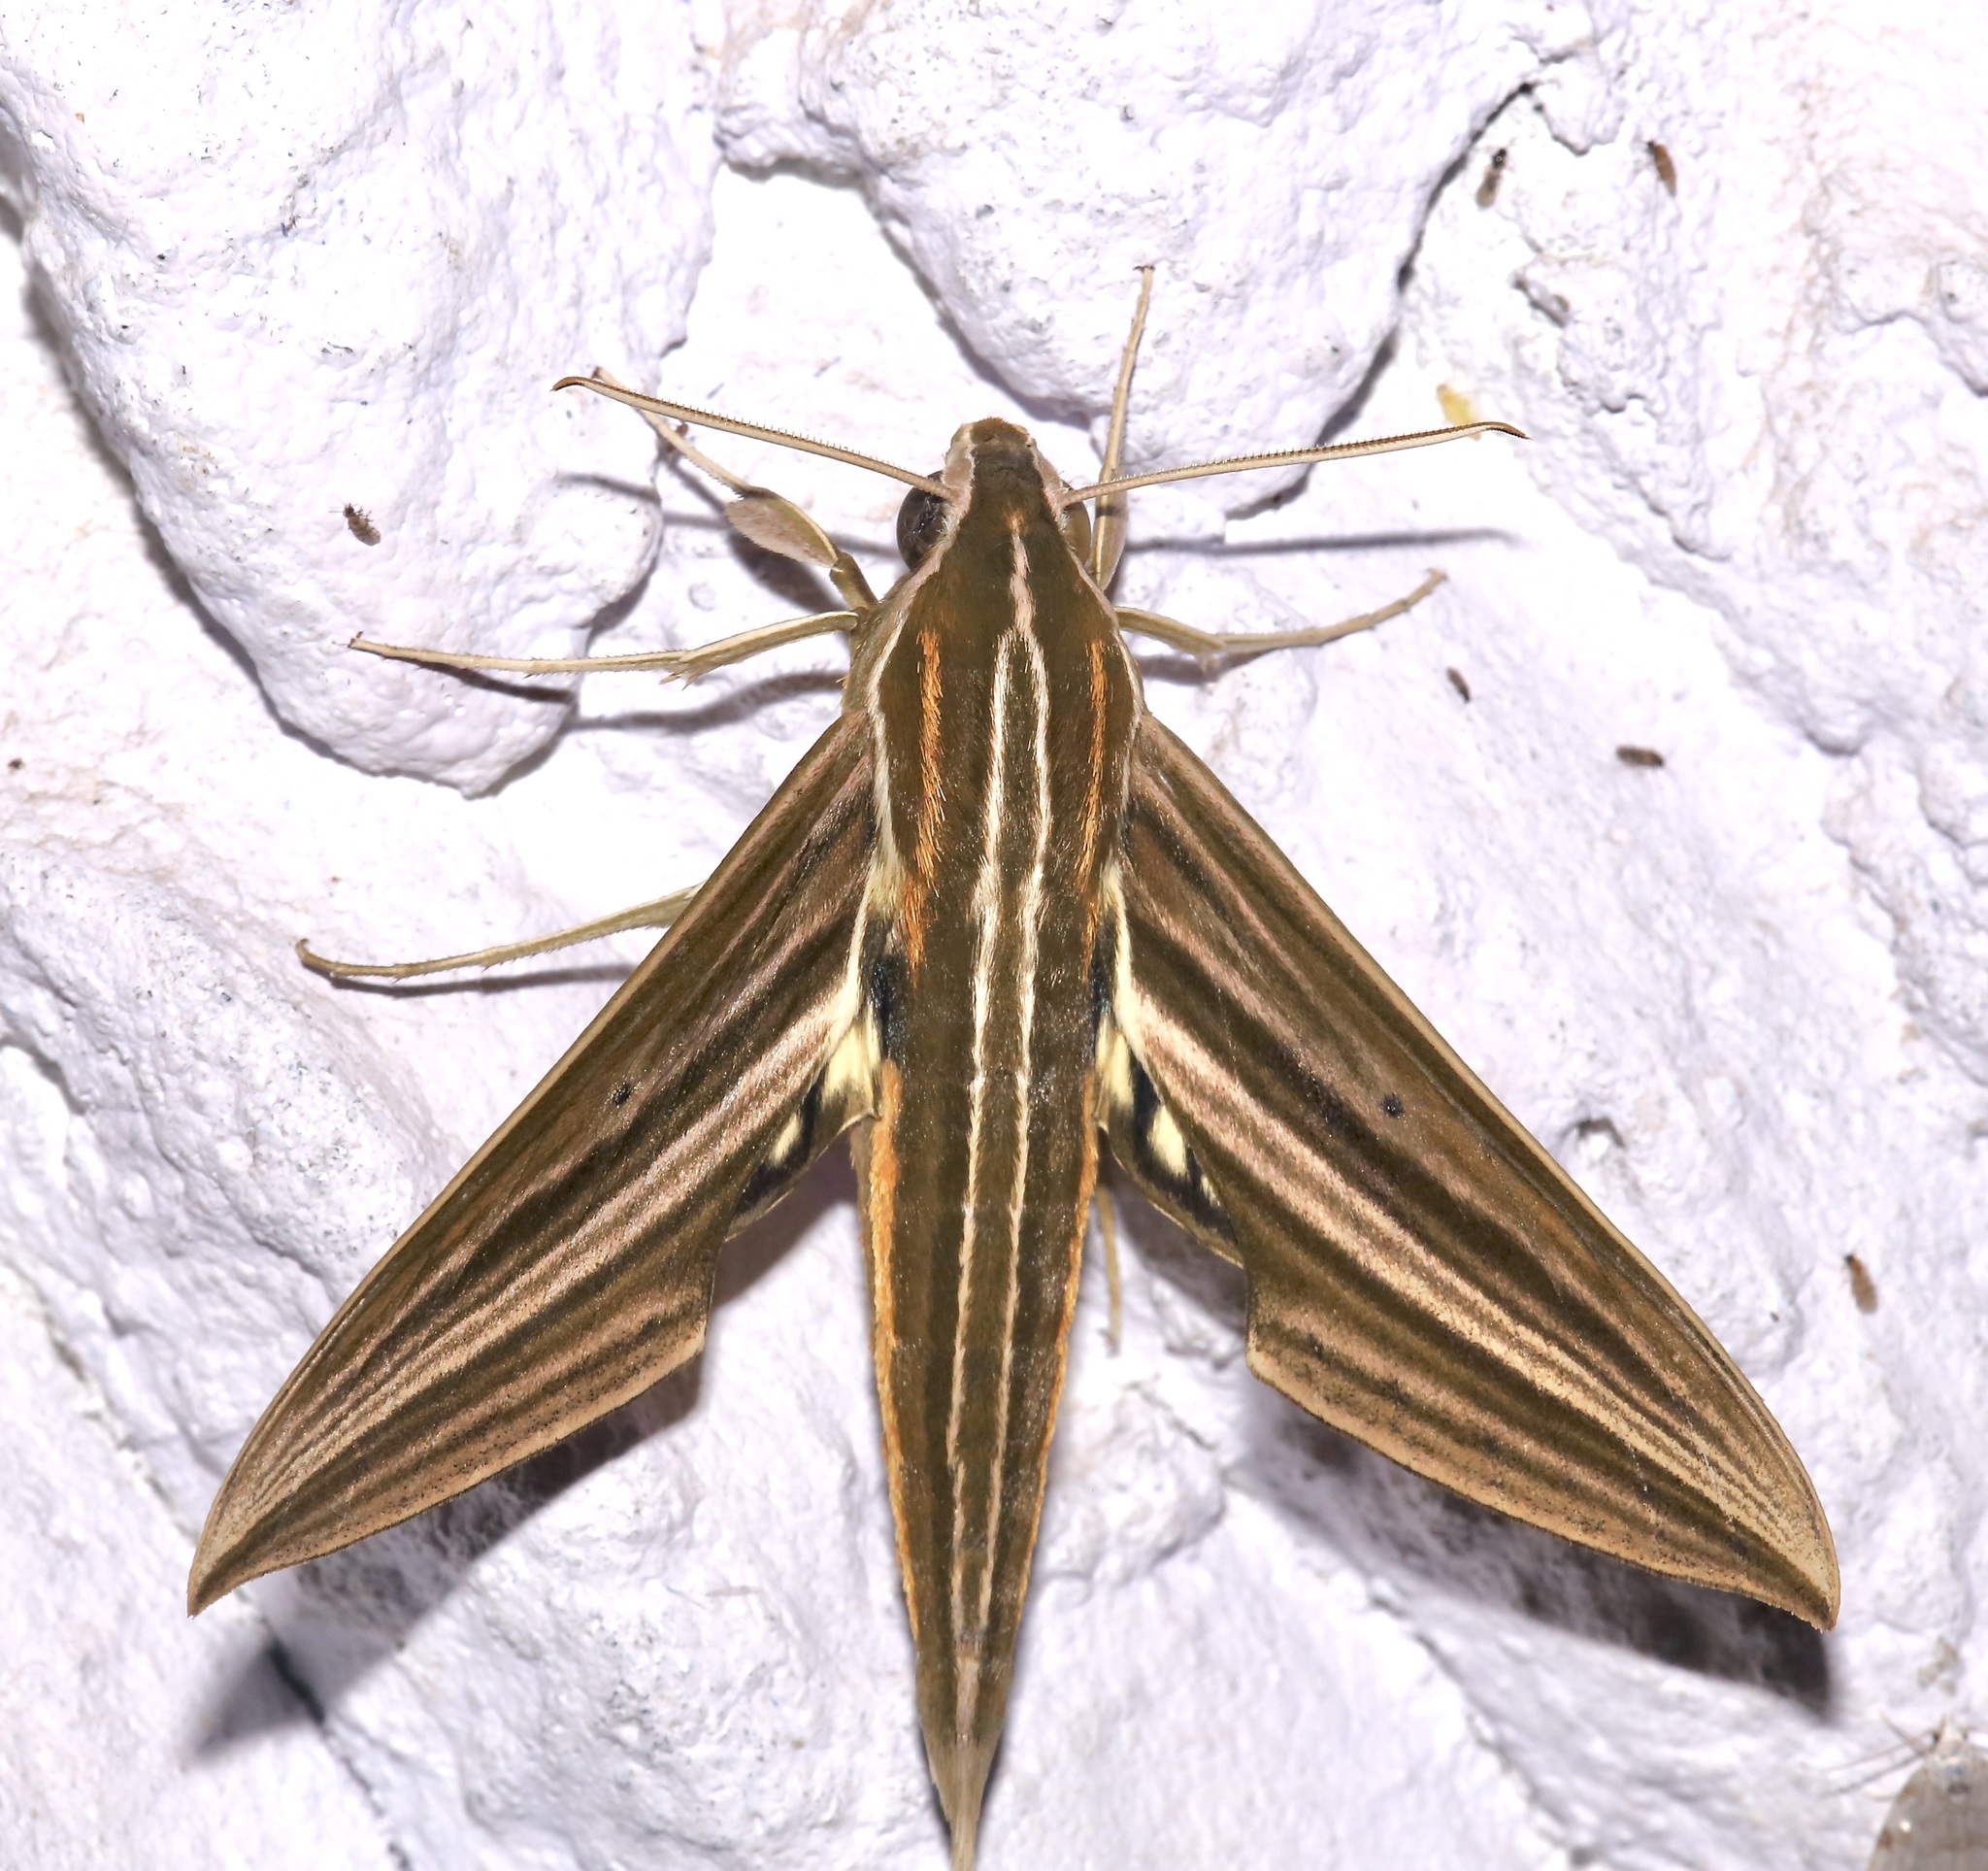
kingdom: Animalia
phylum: Arthropoda
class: Insecta
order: Lepidoptera
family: Sphingidae
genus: Xylophanes
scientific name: Xylophanes titana
